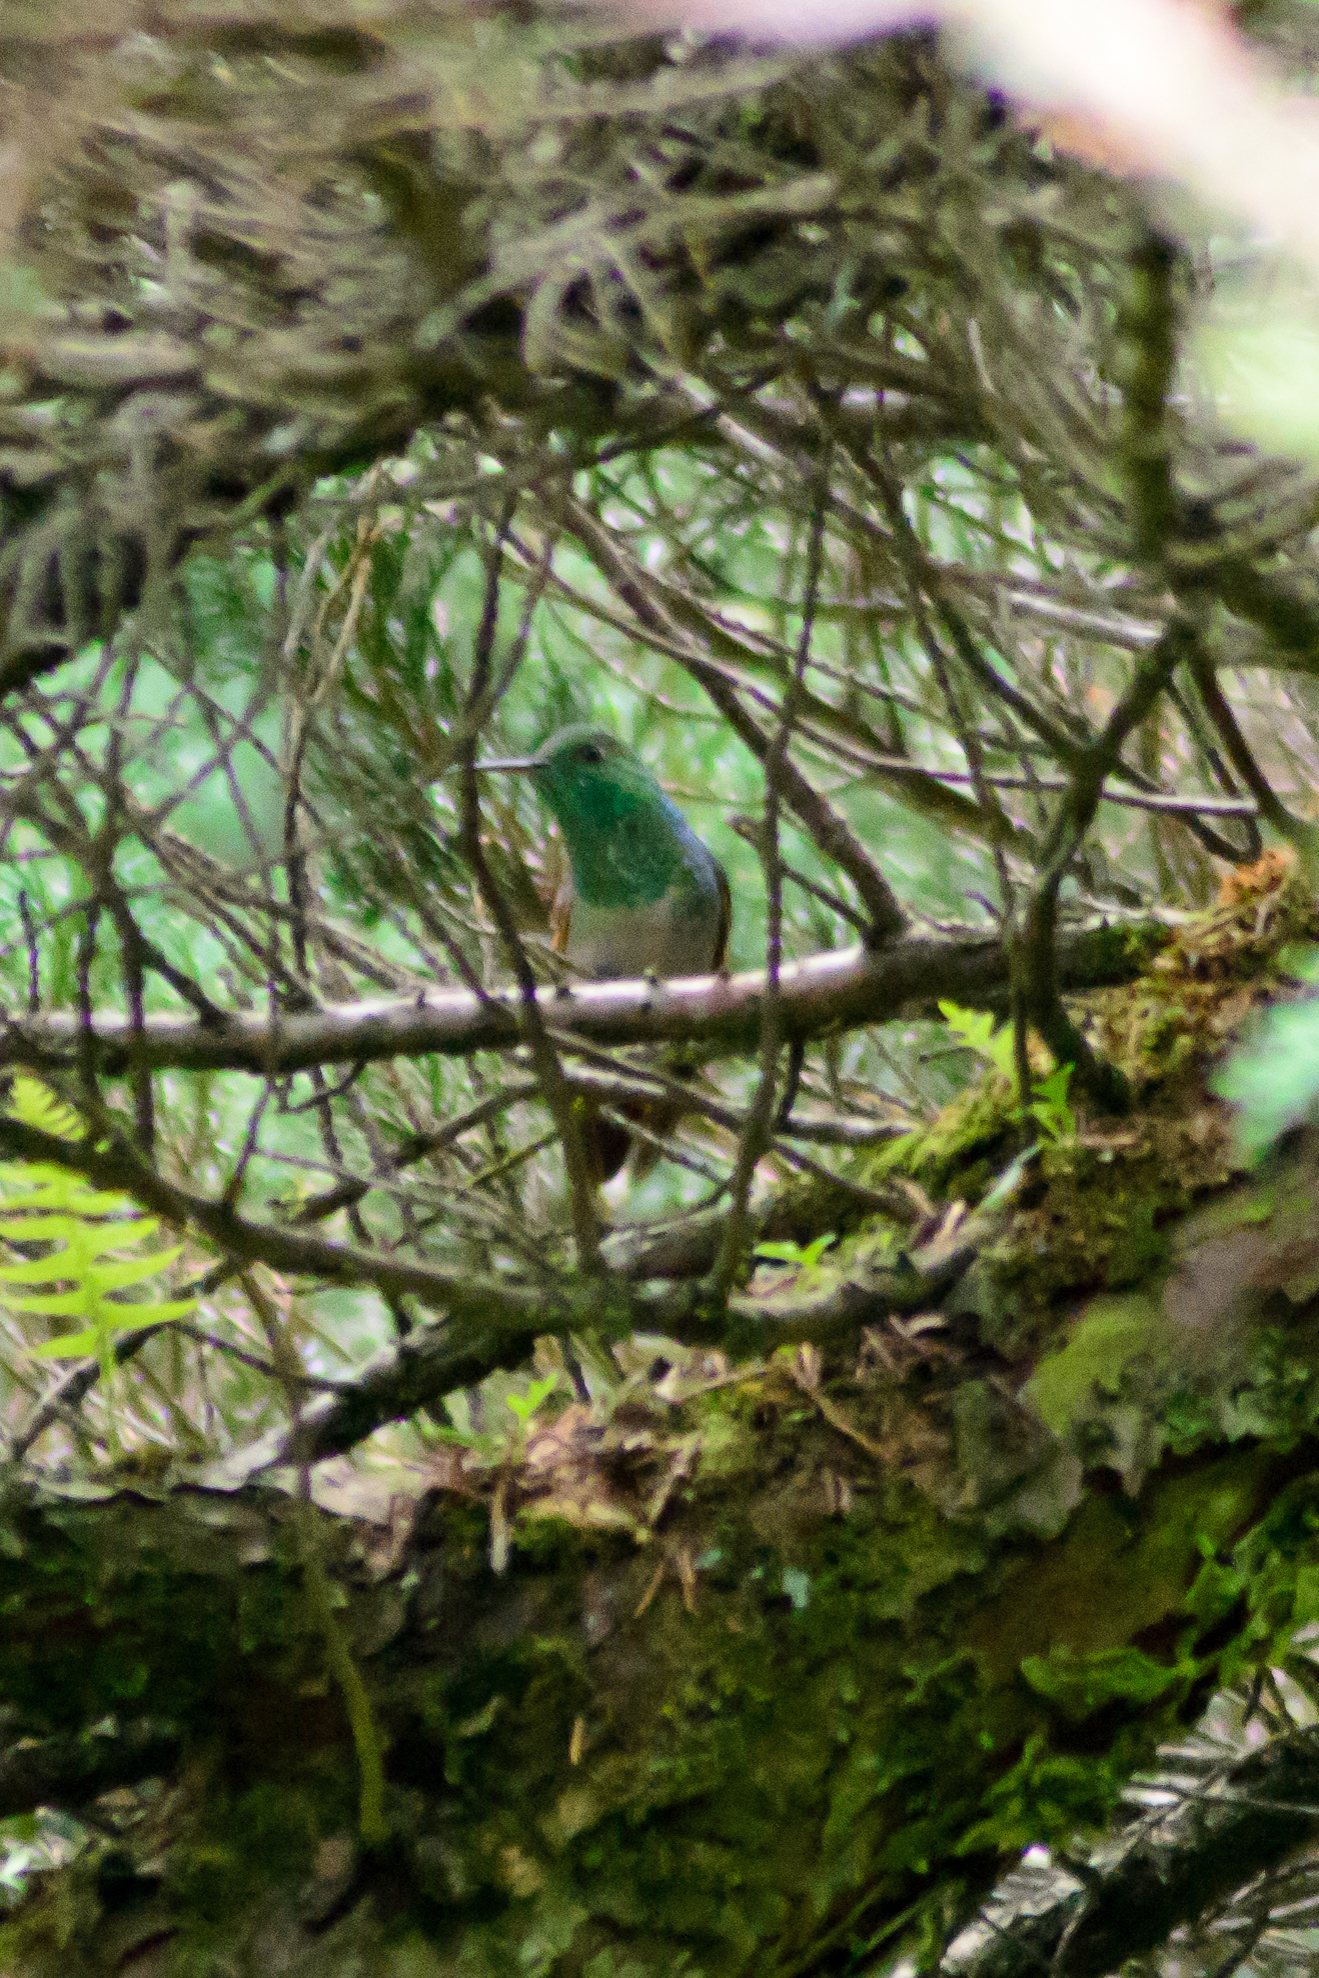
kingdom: Animalia
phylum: Chordata
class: Aves
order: Apodiformes
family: Trochilidae
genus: Saucerottia
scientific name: Saucerottia beryllina
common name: Berylline hummingbird
